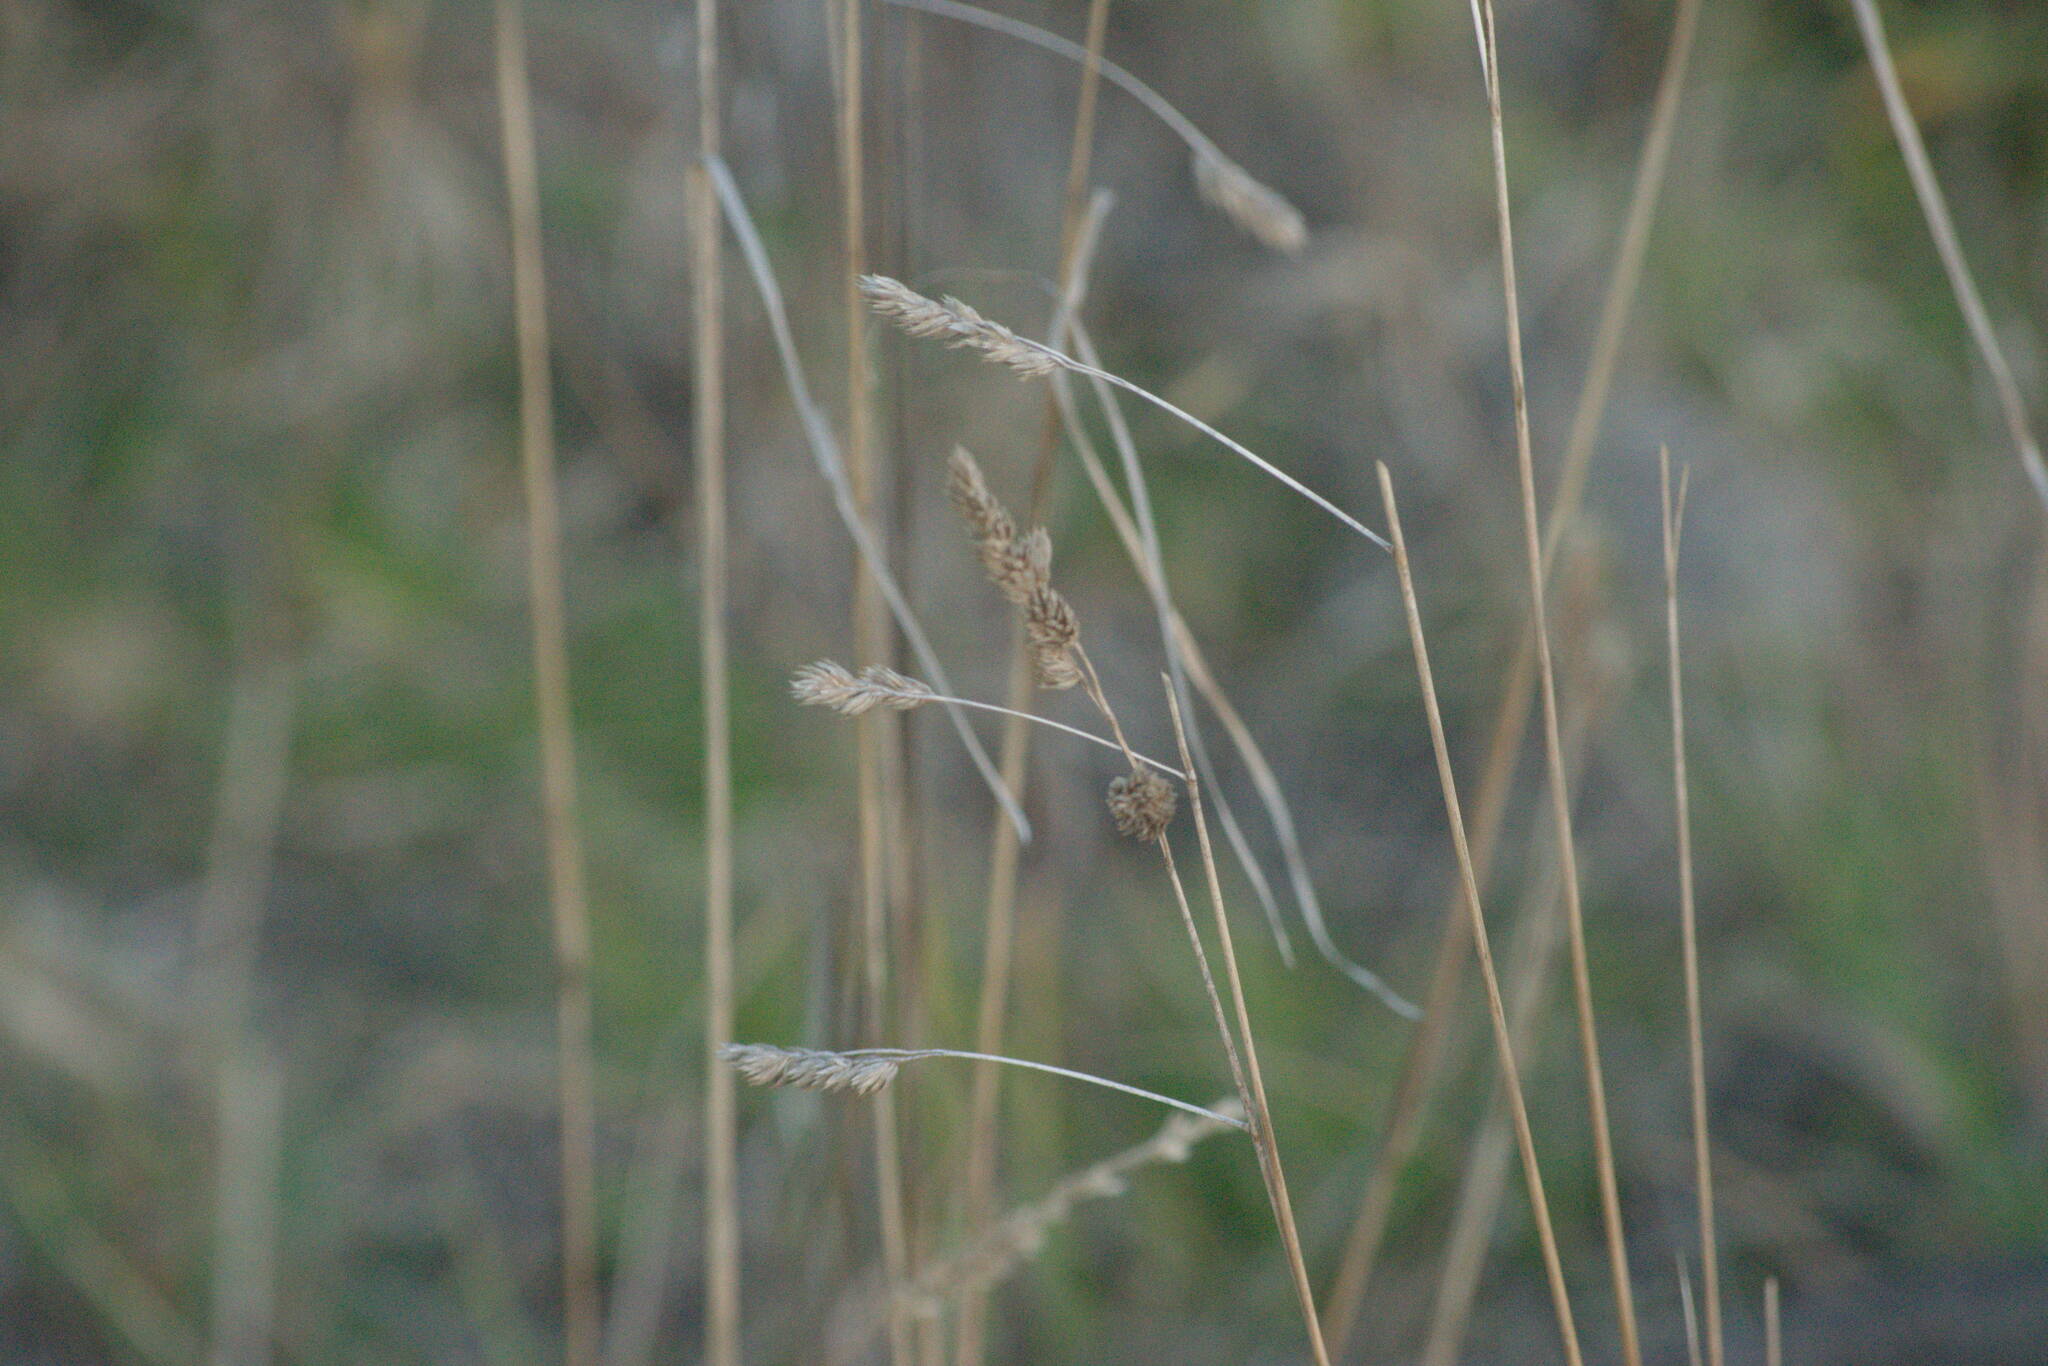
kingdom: Plantae
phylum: Tracheophyta
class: Liliopsida
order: Poales
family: Poaceae
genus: Dactylis
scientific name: Dactylis glomerata
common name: Orchardgrass
